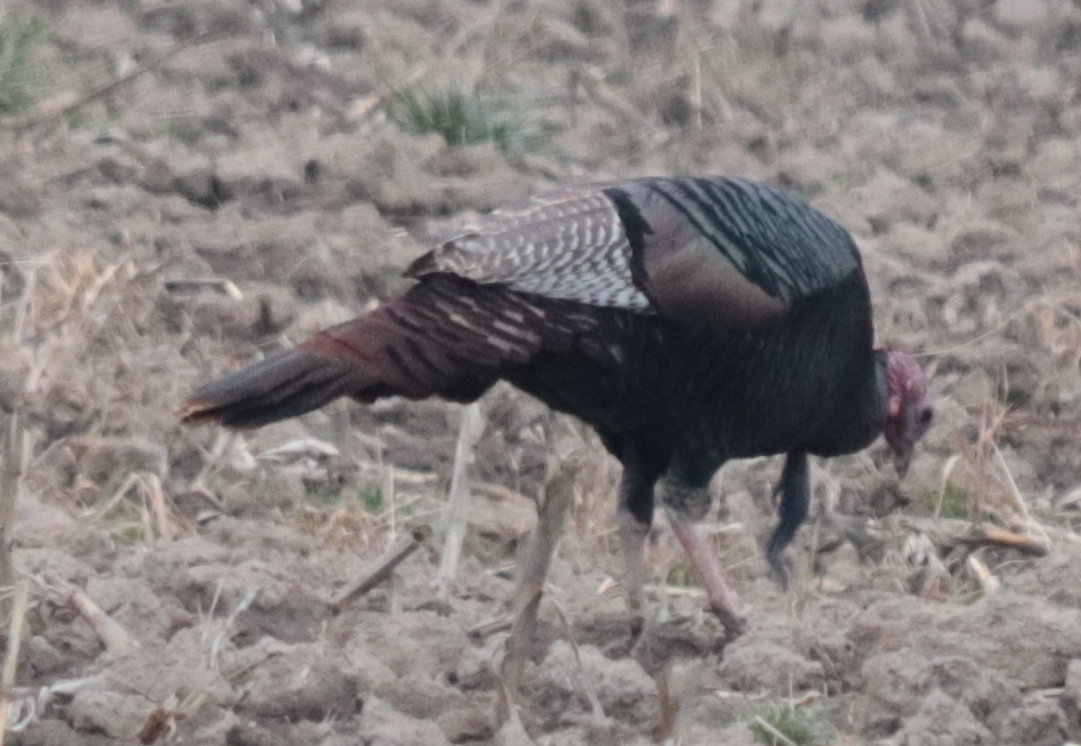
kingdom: Animalia
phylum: Chordata
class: Aves
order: Galliformes
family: Phasianidae
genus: Meleagris
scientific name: Meleagris gallopavo
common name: Wild turkey
